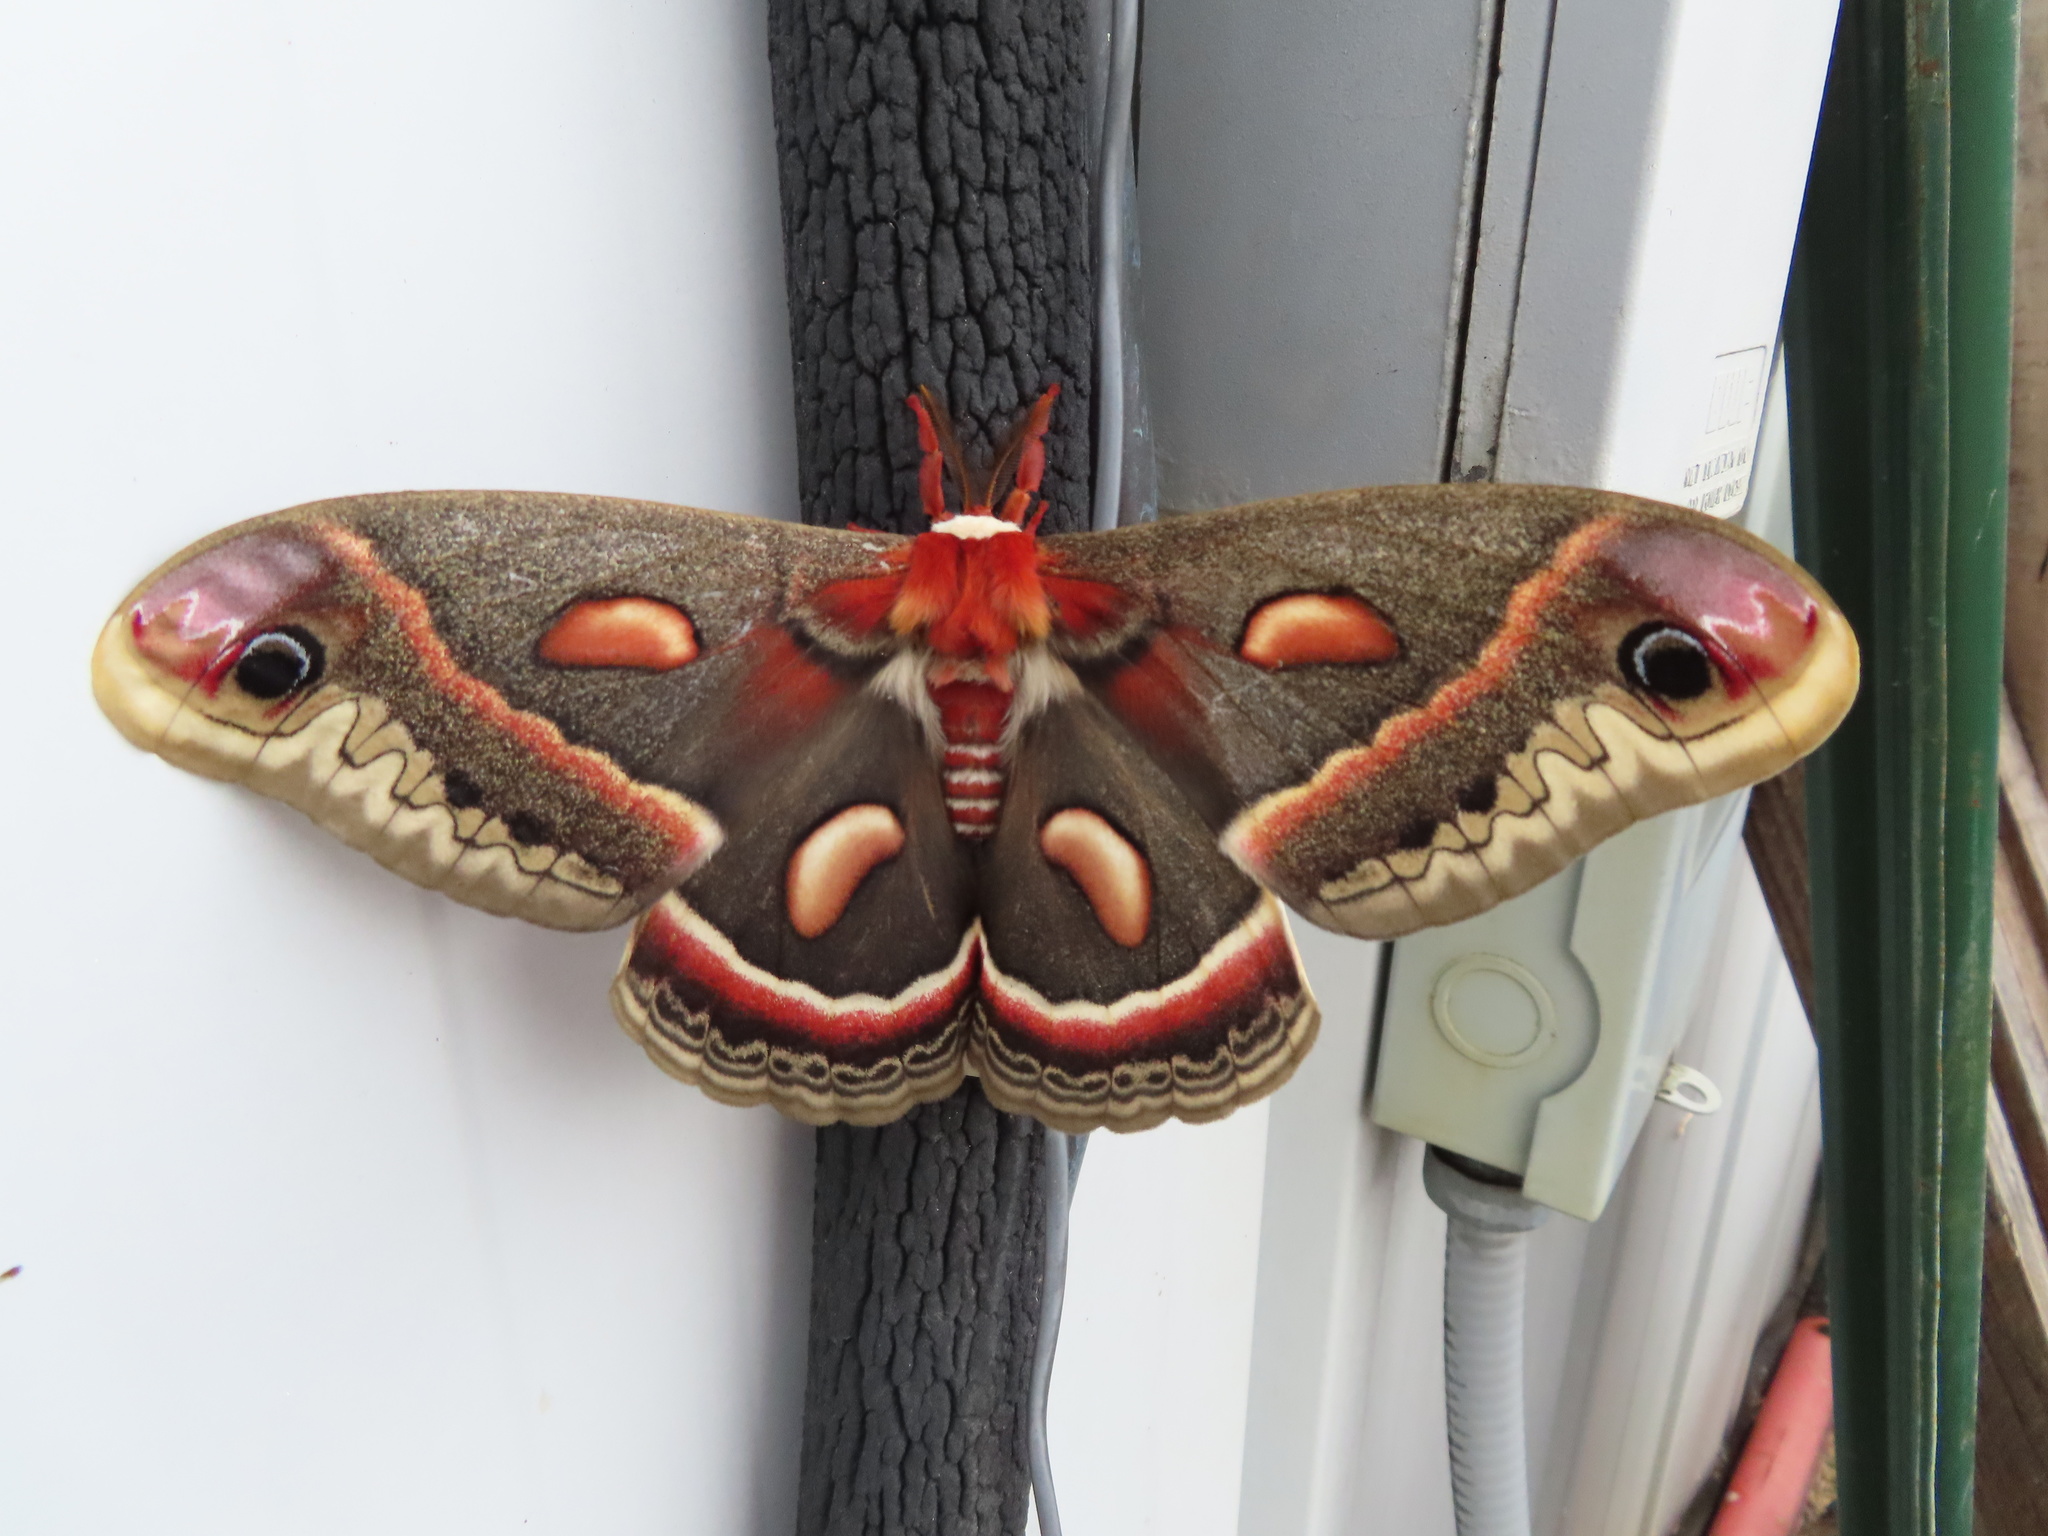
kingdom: Animalia
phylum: Arthropoda
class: Insecta
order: Lepidoptera
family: Saturniidae
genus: Hyalophora
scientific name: Hyalophora cecropia
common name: Cecropia silkmoth
